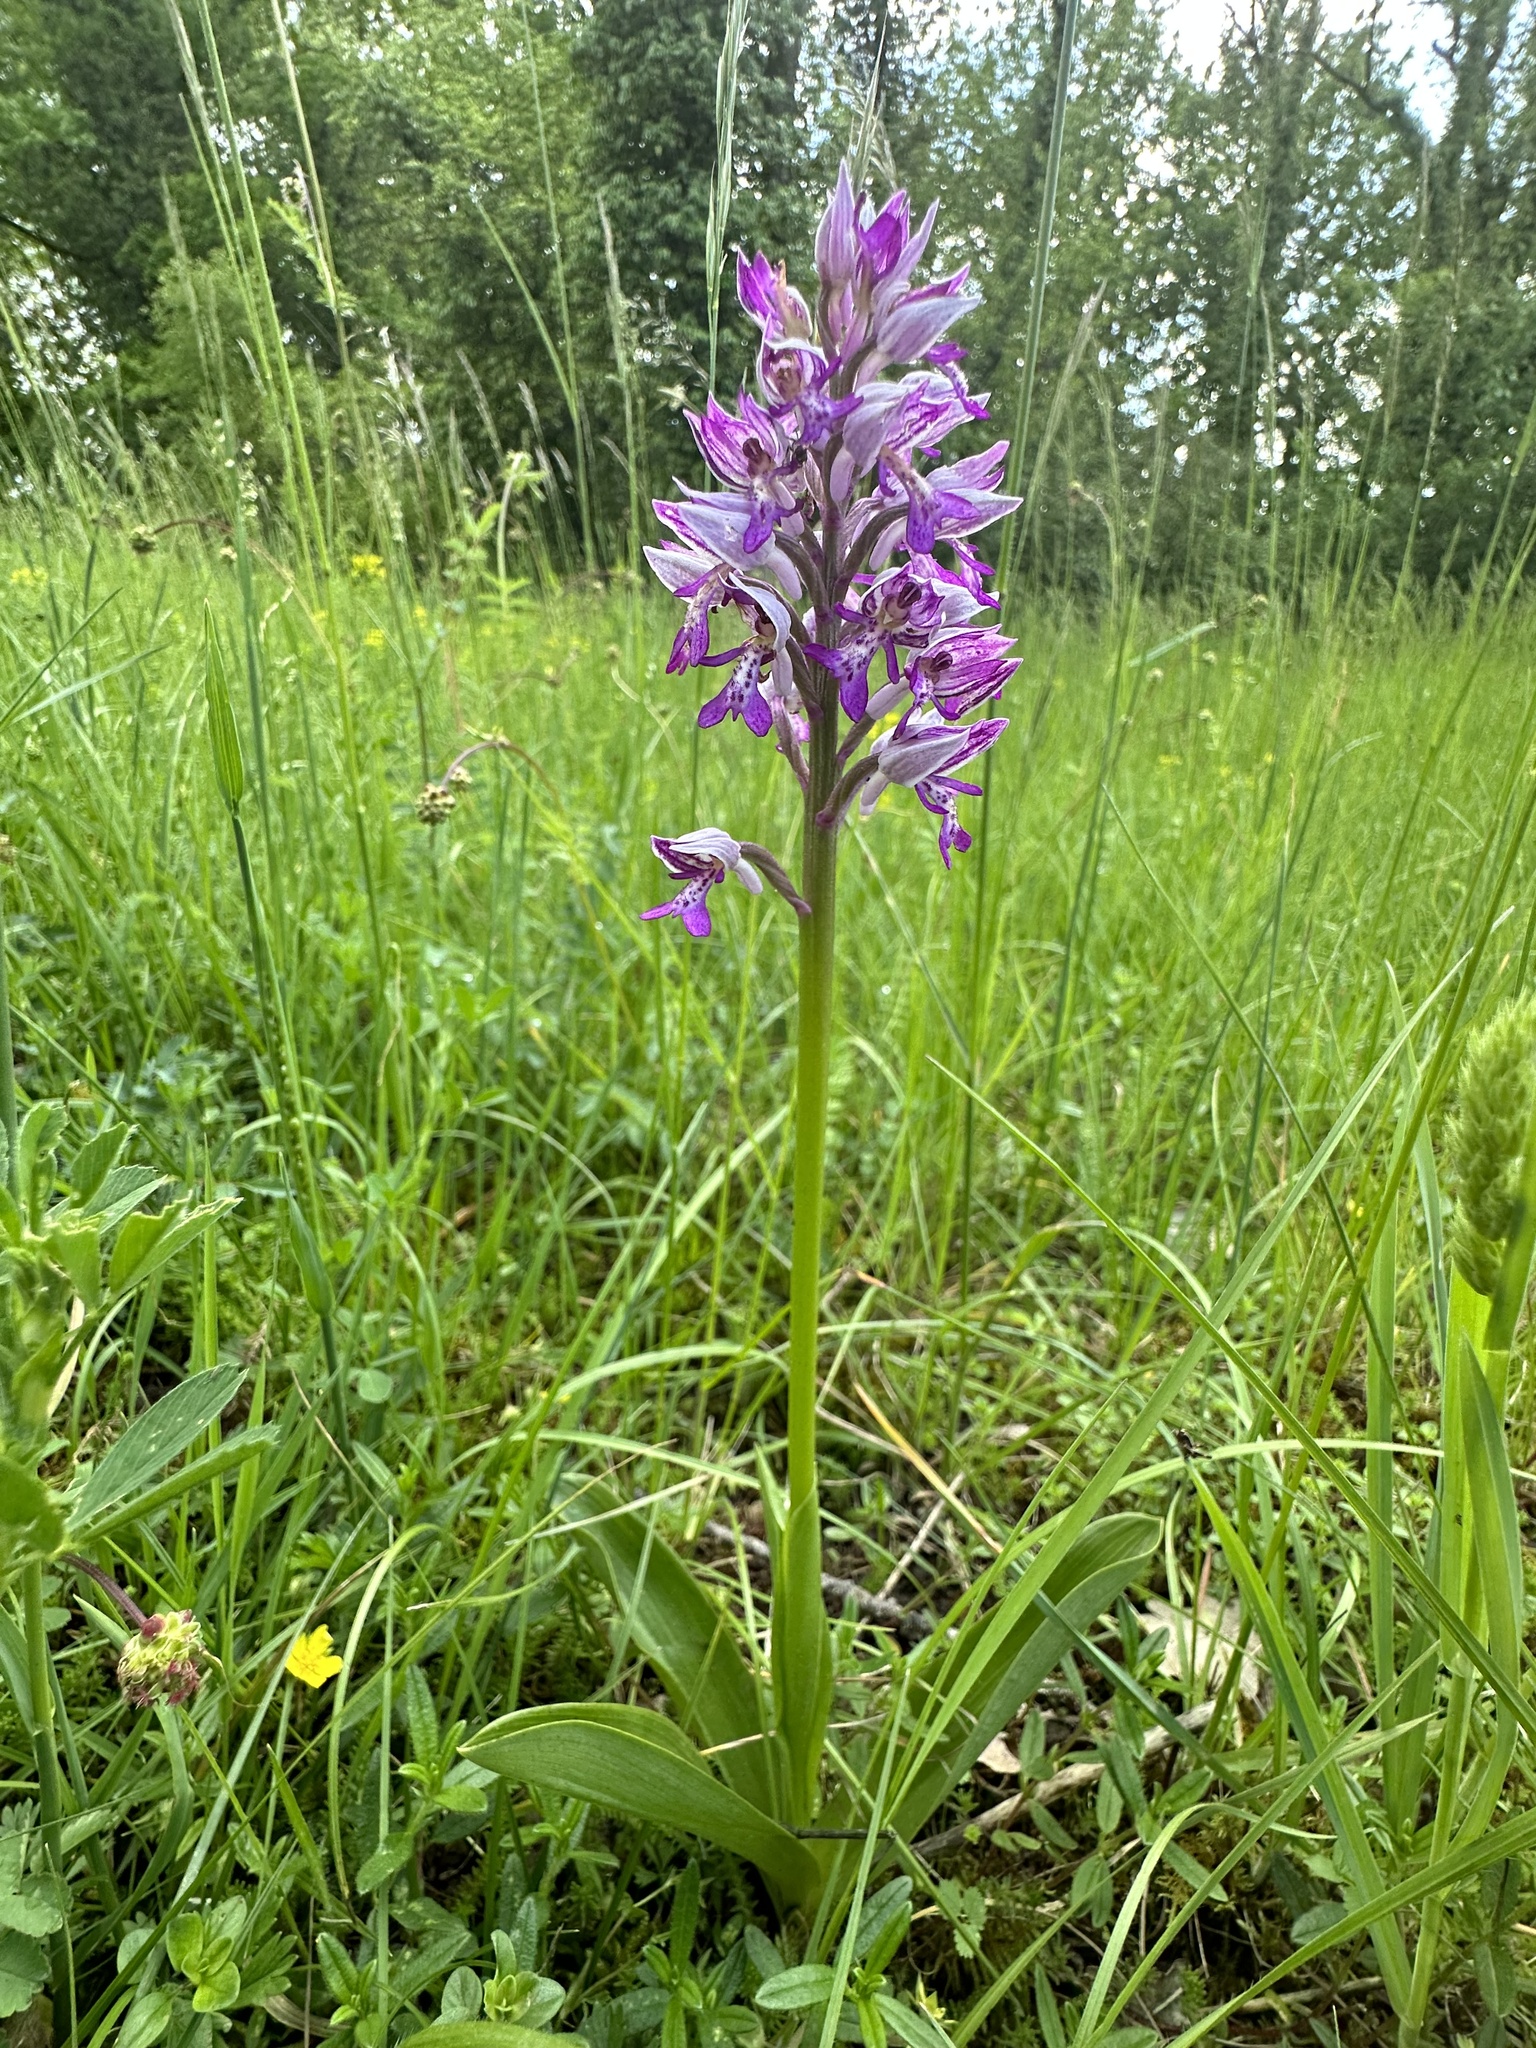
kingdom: Plantae
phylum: Tracheophyta
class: Liliopsida
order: Asparagales
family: Orchidaceae
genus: Orchis
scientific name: Orchis militaris
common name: Military orchid
